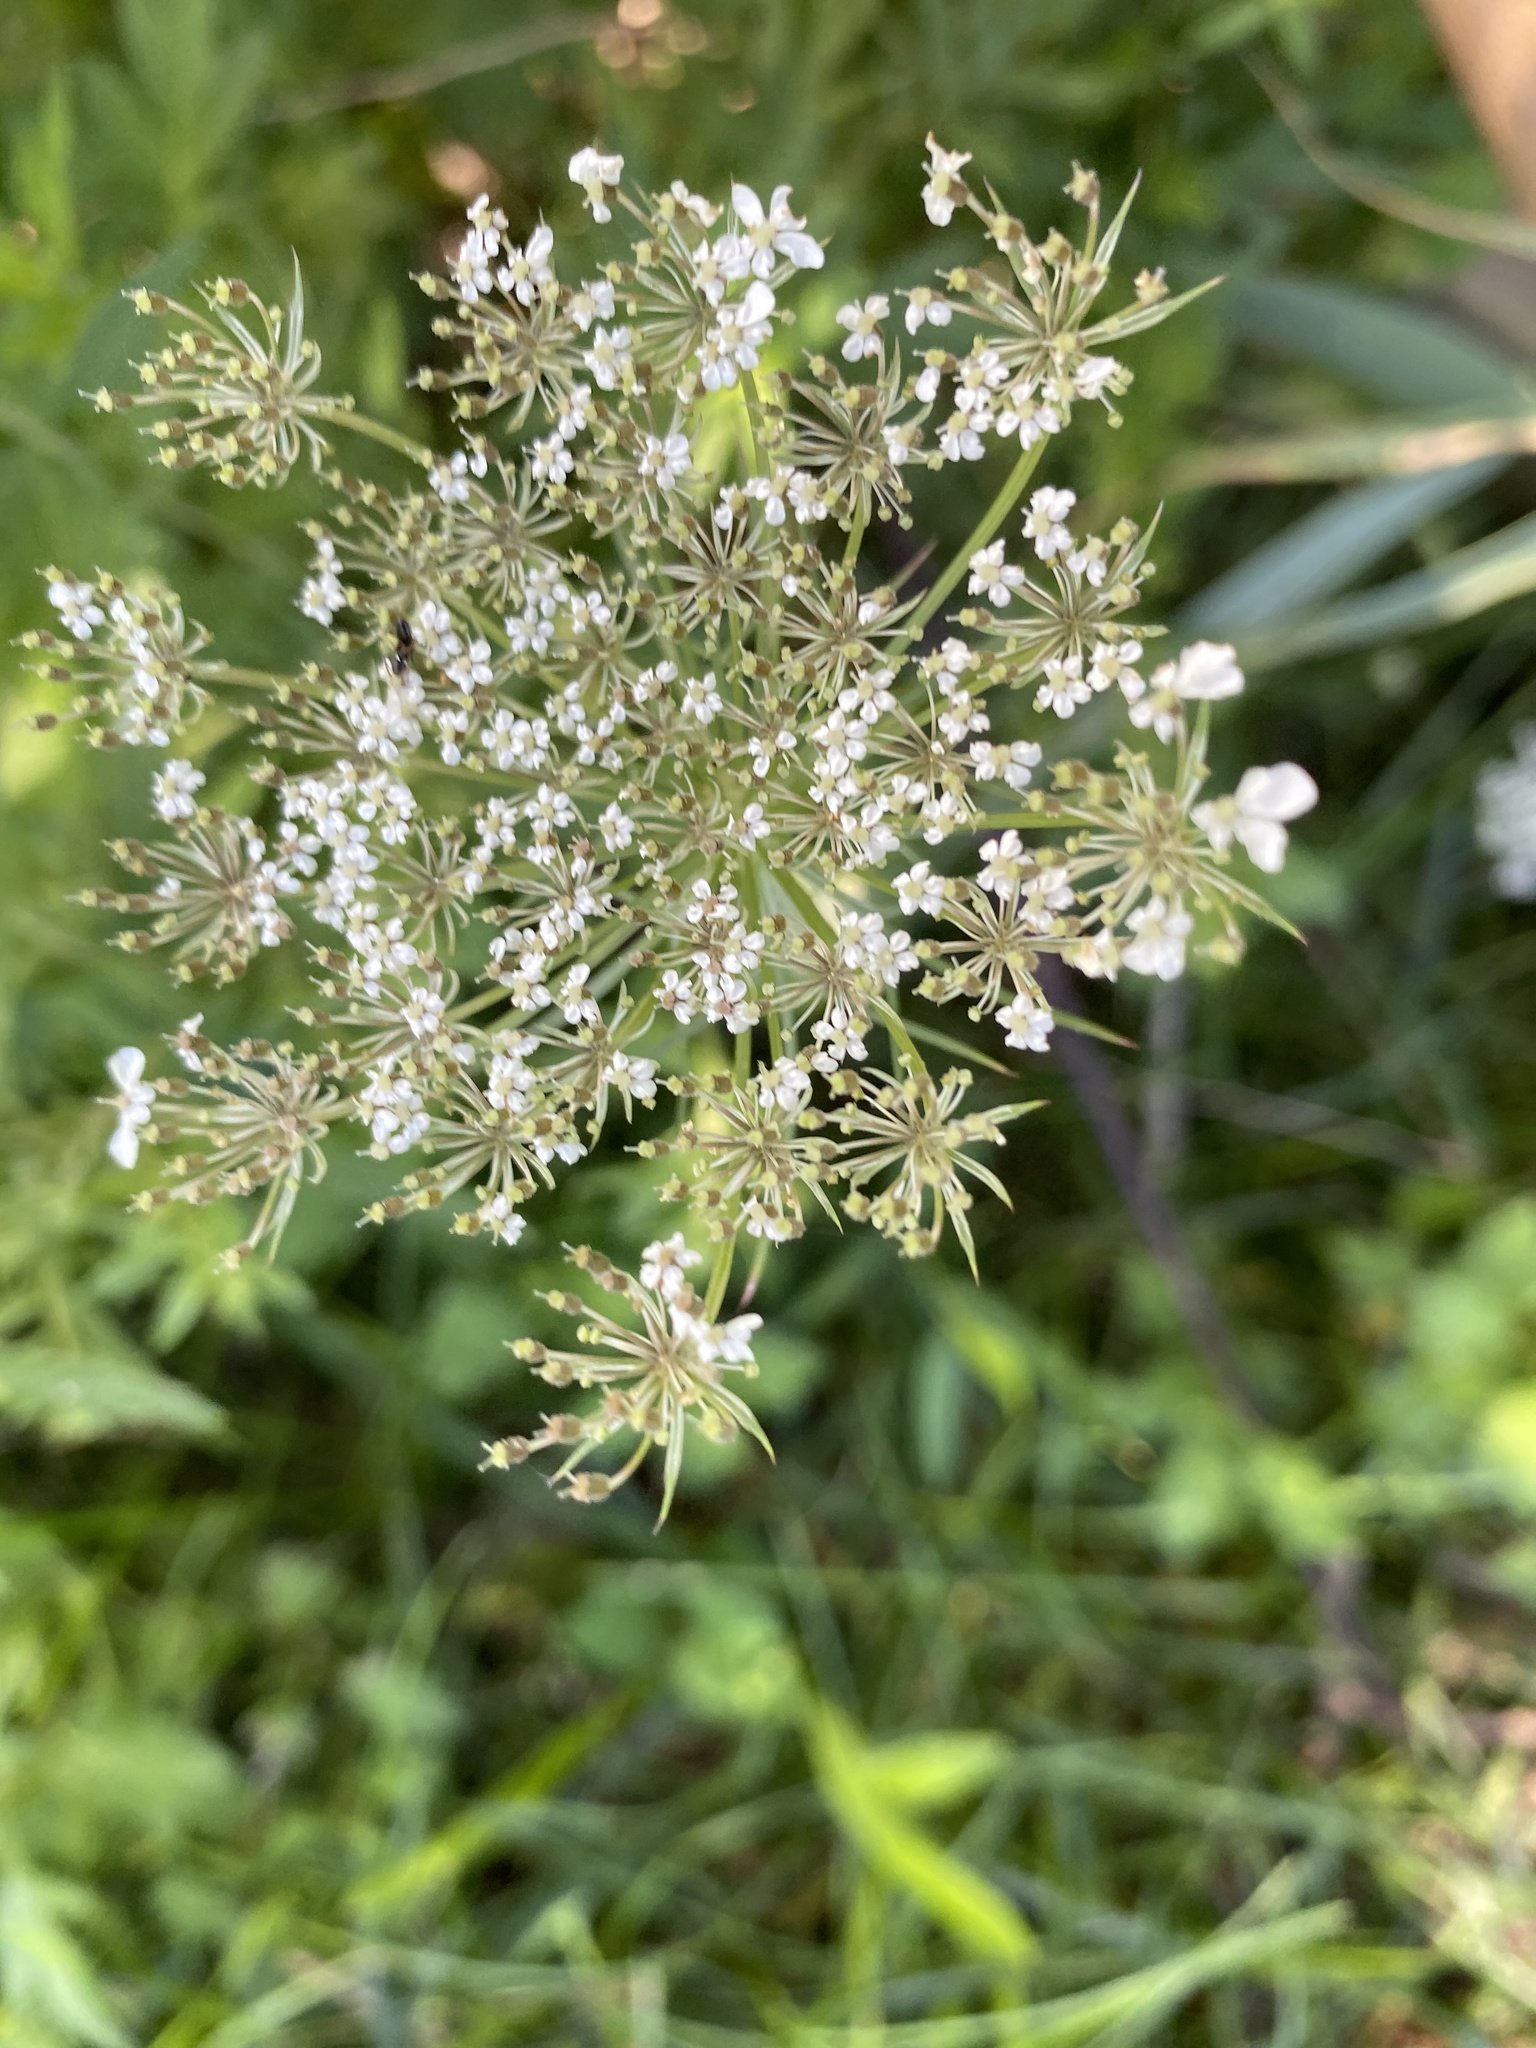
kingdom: Plantae
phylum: Tracheophyta
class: Magnoliopsida
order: Apiales
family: Apiaceae
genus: Daucus
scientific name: Daucus carota
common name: Wild carrot
